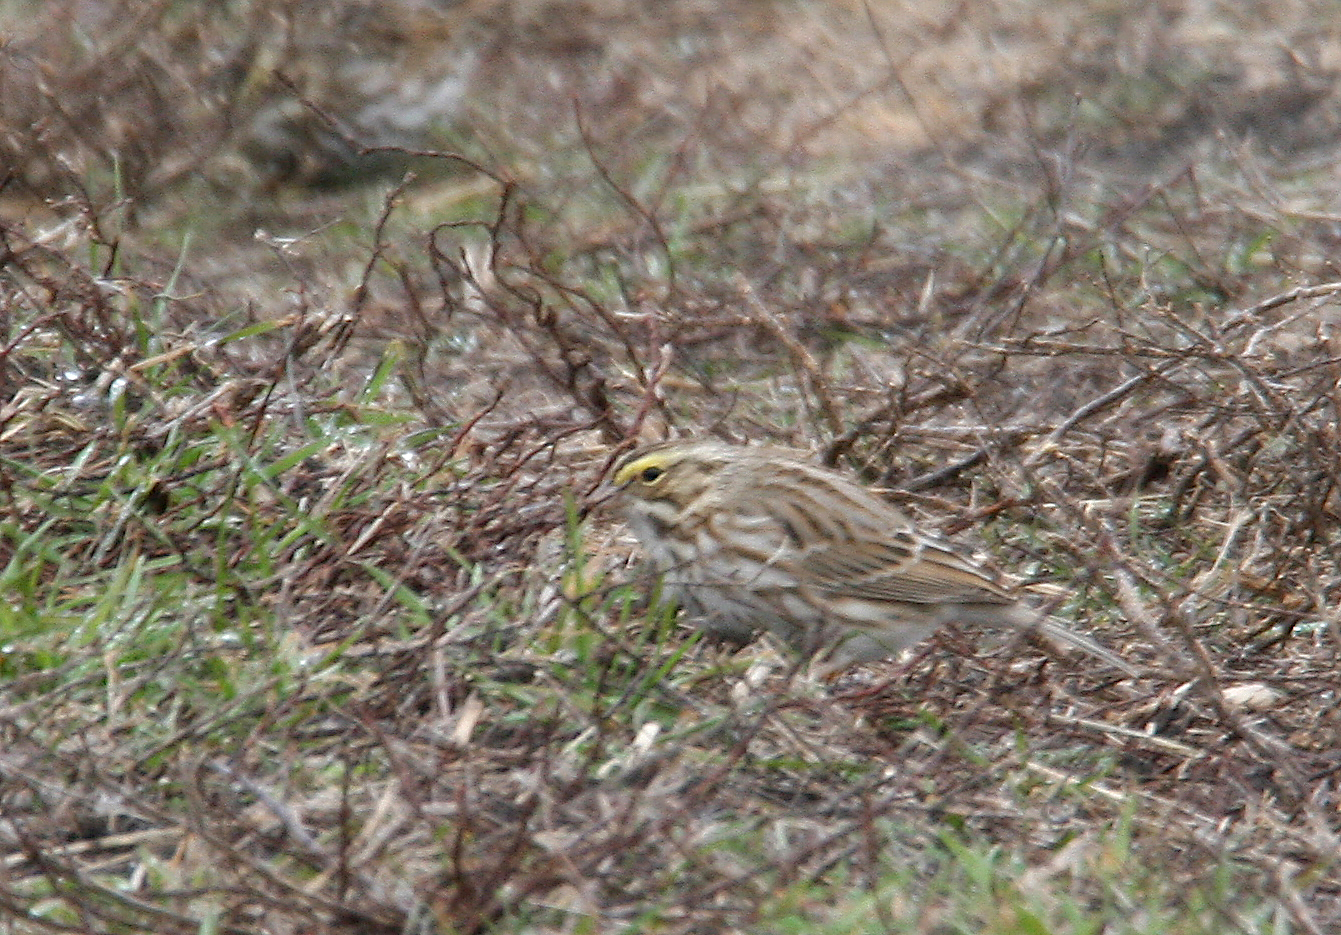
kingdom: Animalia
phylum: Chordata
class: Aves
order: Passeriformes
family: Passerellidae
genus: Passerculus
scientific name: Passerculus sandwichensis
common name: Savannah sparrow
